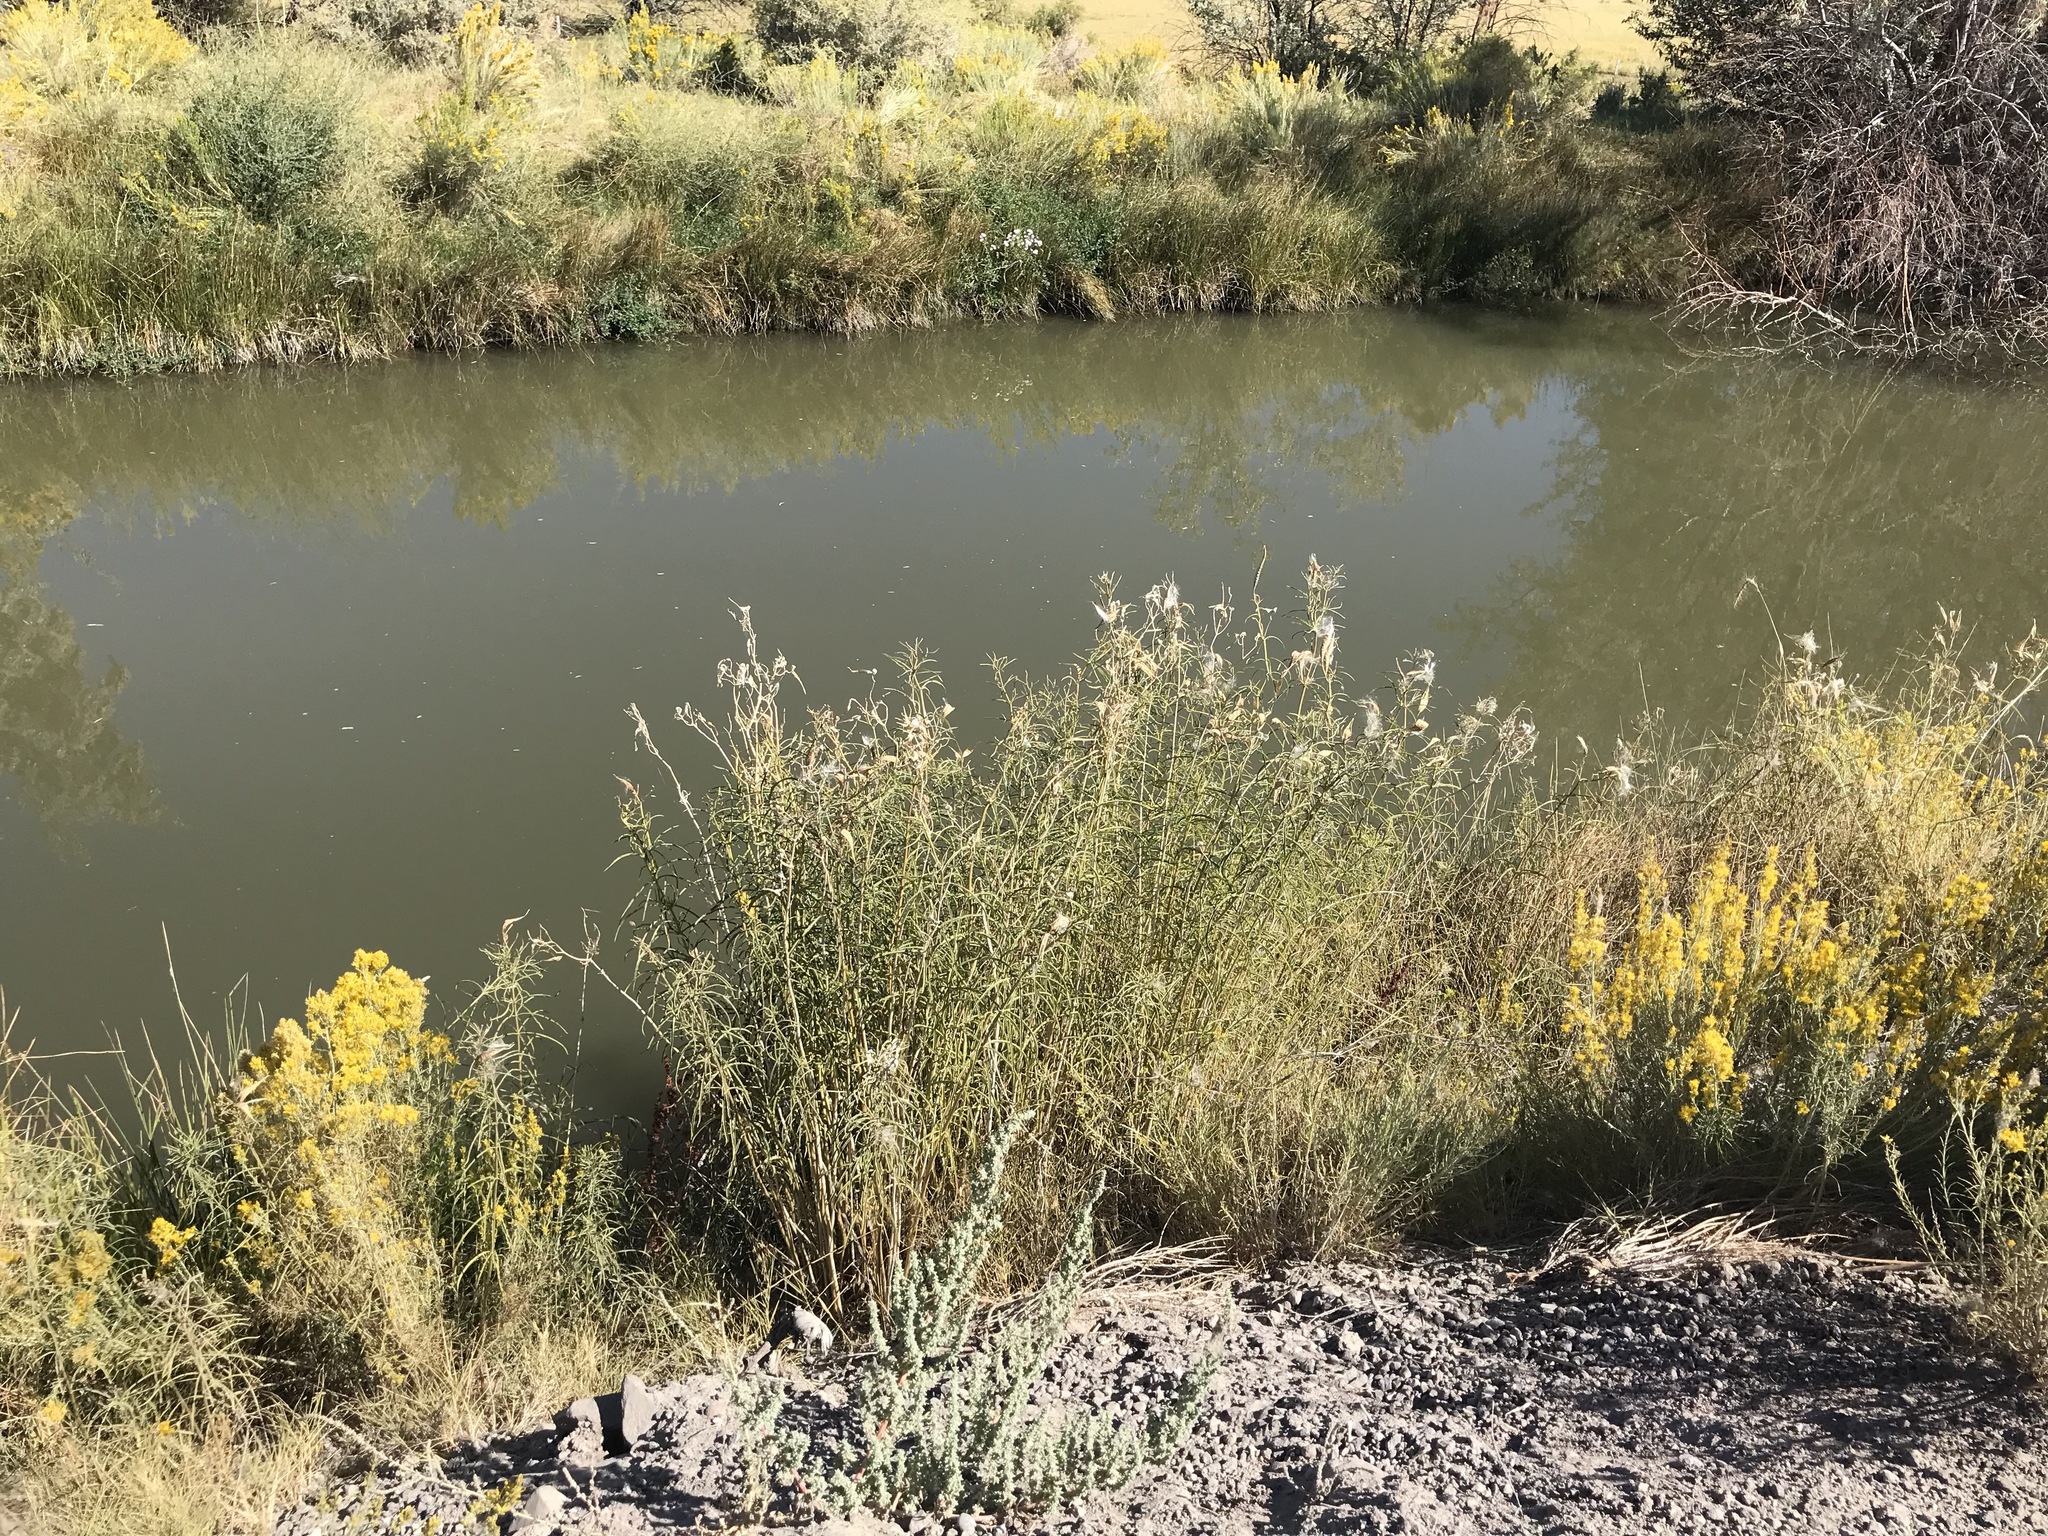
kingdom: Plantae
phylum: Tracheophyta
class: Magnoliopsida
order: Gentianales
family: Apocynaceae
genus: Asclepias
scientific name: Asclepias fascicularis
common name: Mexican milkweed
